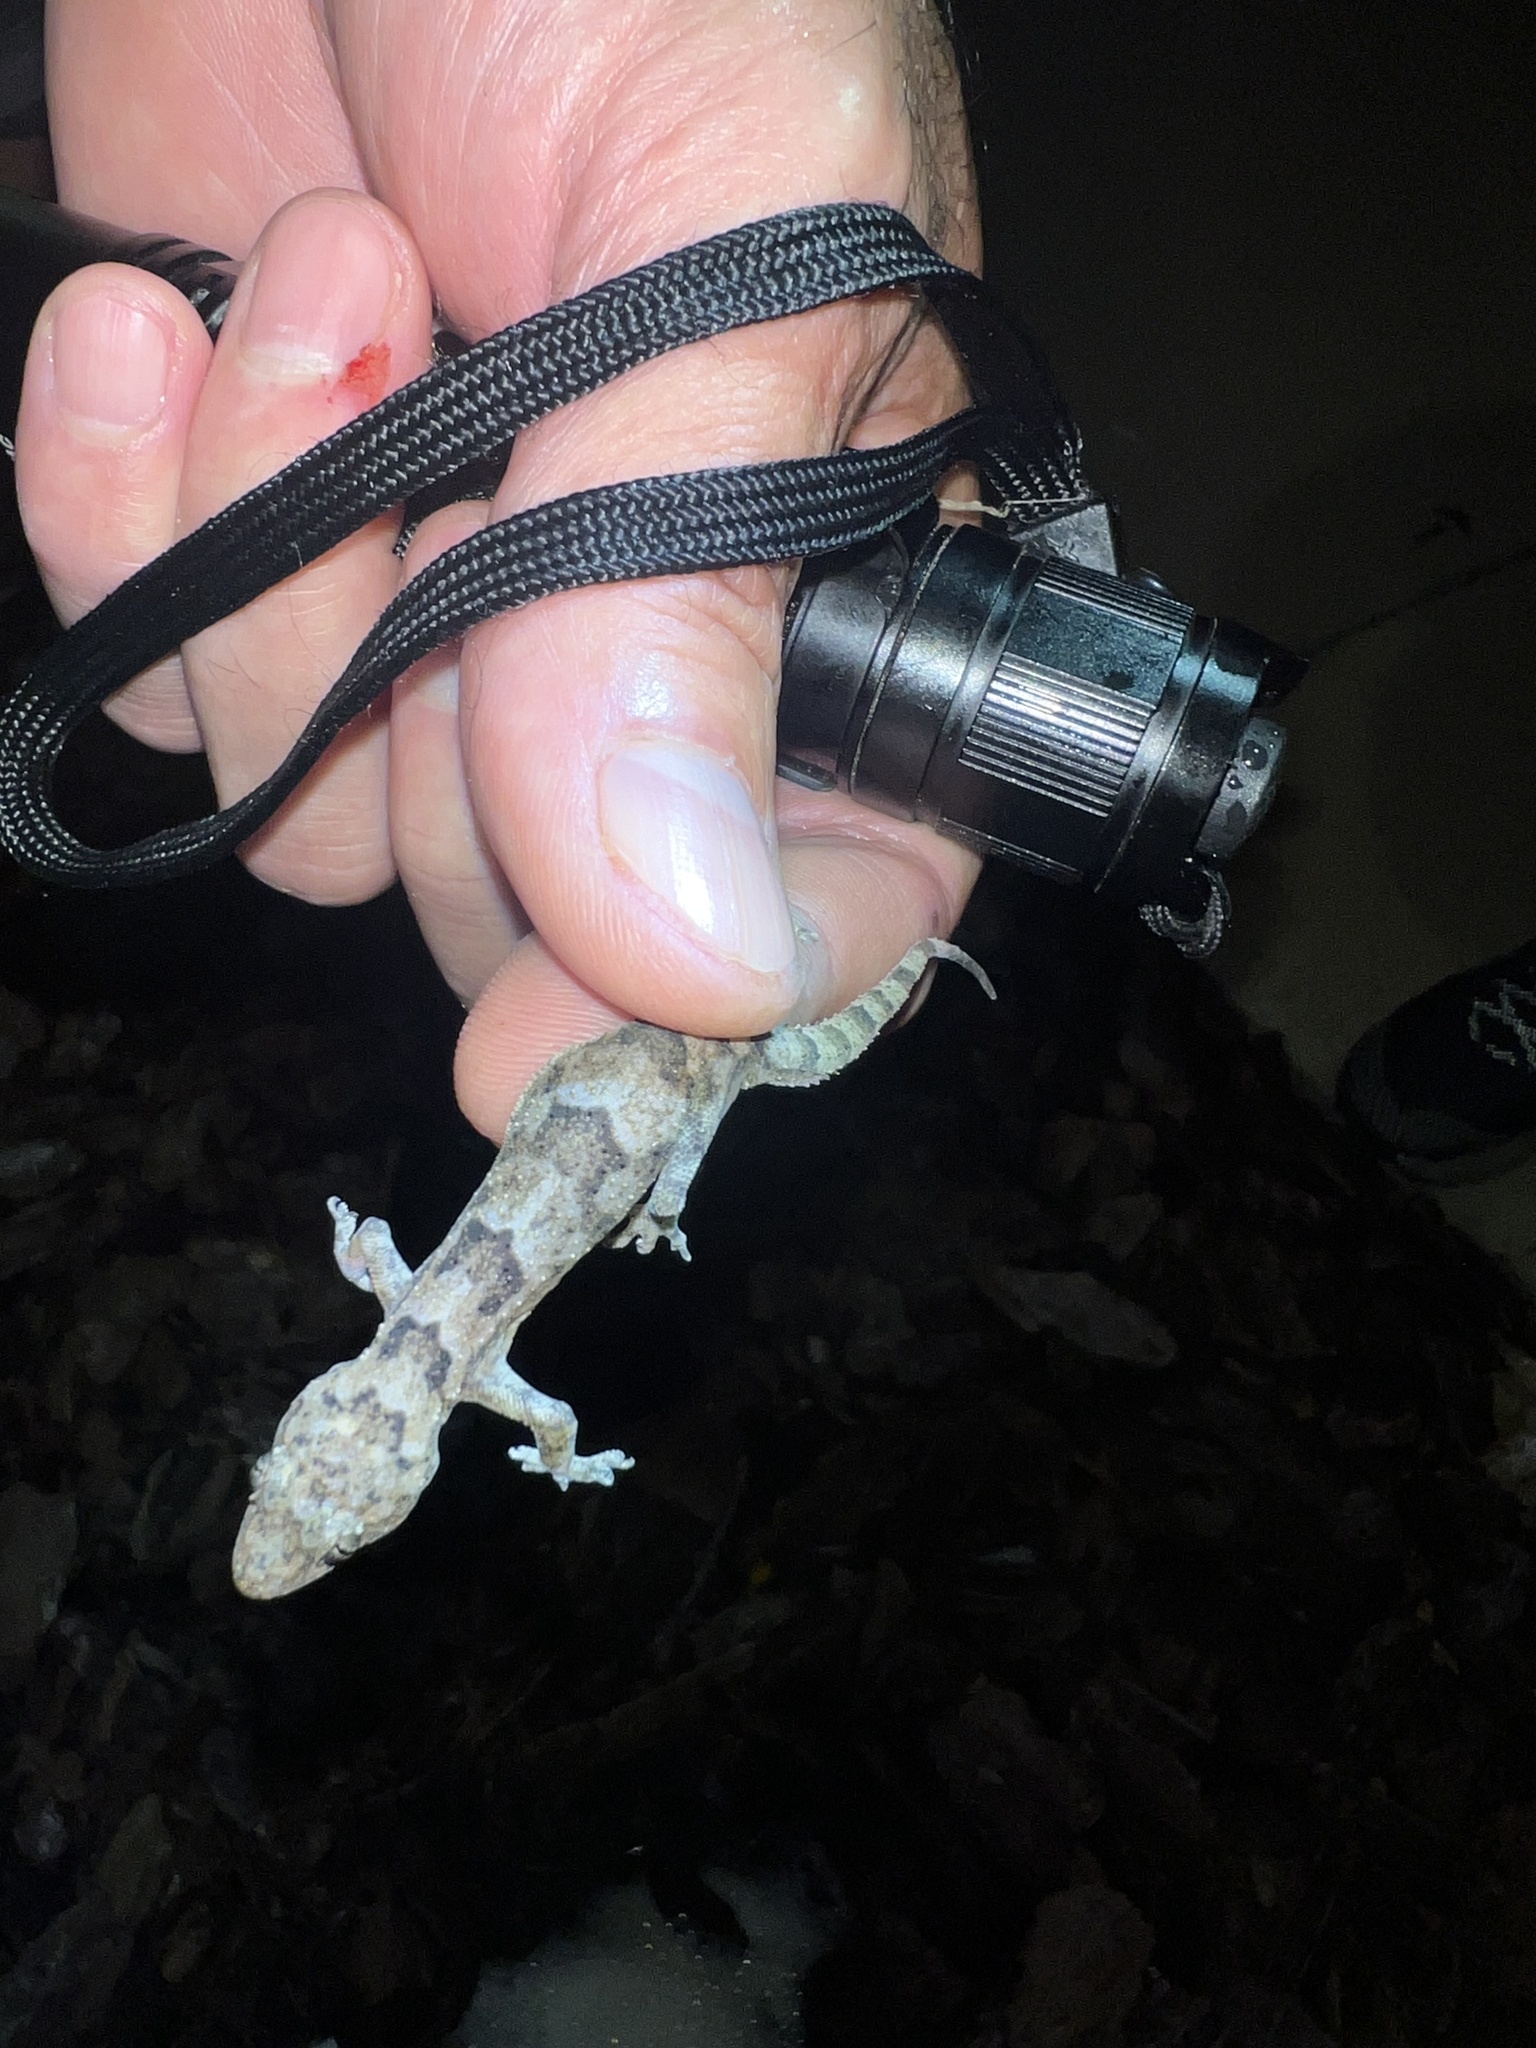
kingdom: Animalia
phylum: Chordata
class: Squamata
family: Gekkonidae
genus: Hemidactylus
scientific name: Hemidactylus mabouia
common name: House gecko
